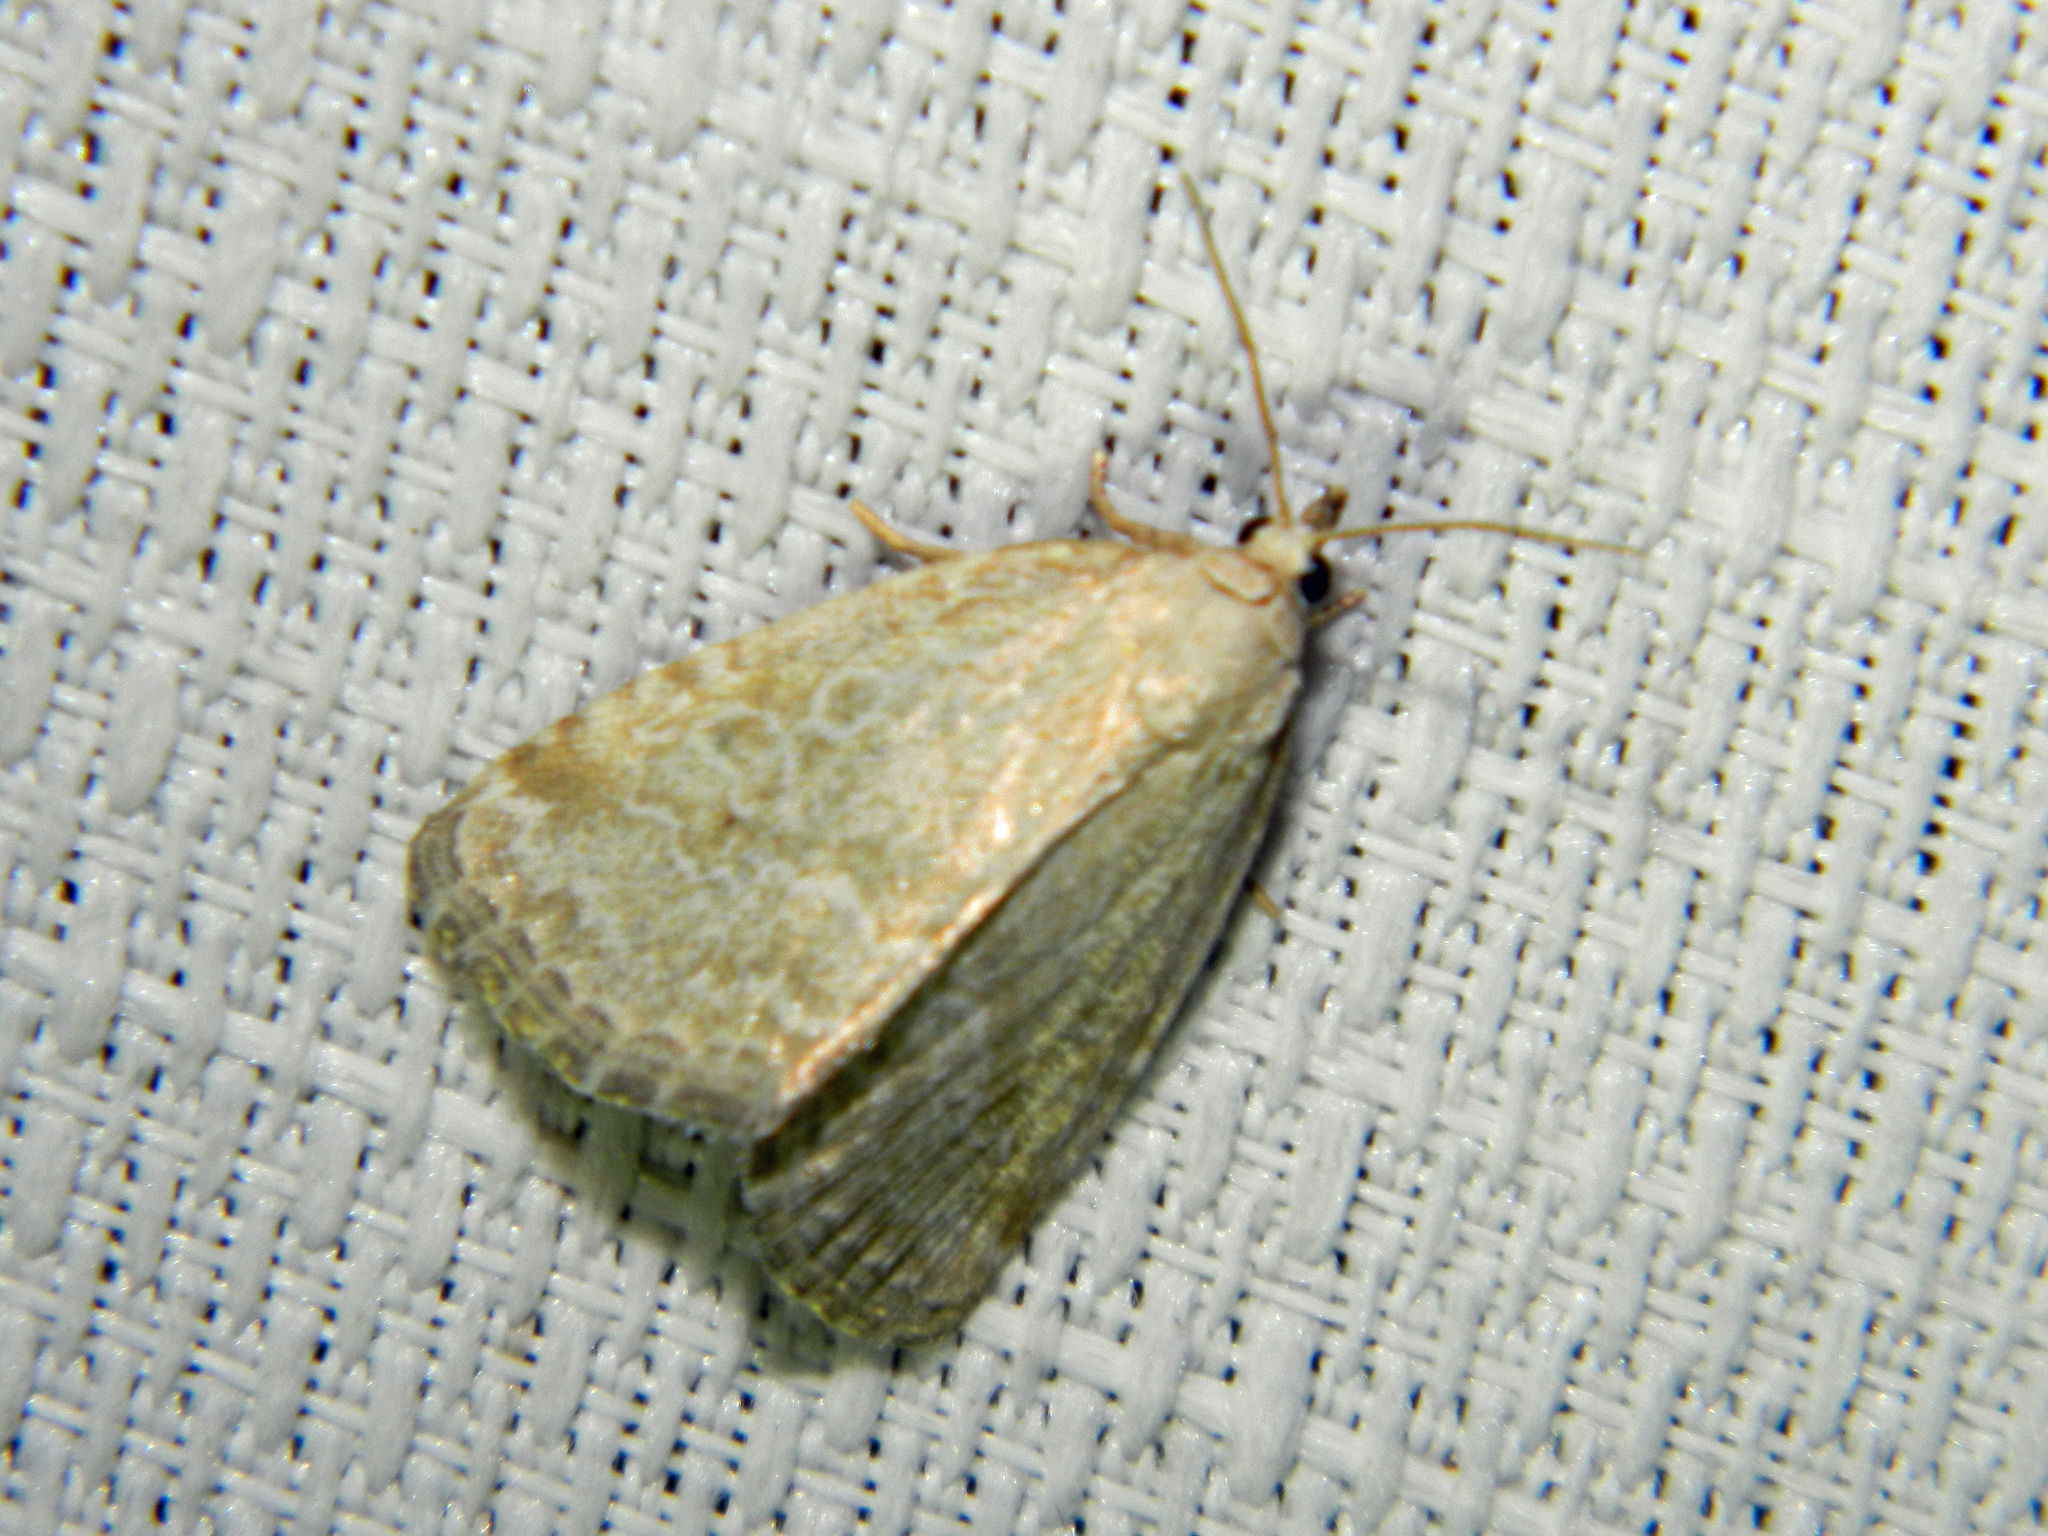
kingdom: Animalia
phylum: Arthropoda
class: Insecta
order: Lepidoptera
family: Noctuidae
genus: Protodeltote
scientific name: Protodeltote albidula
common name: Pale glyph
